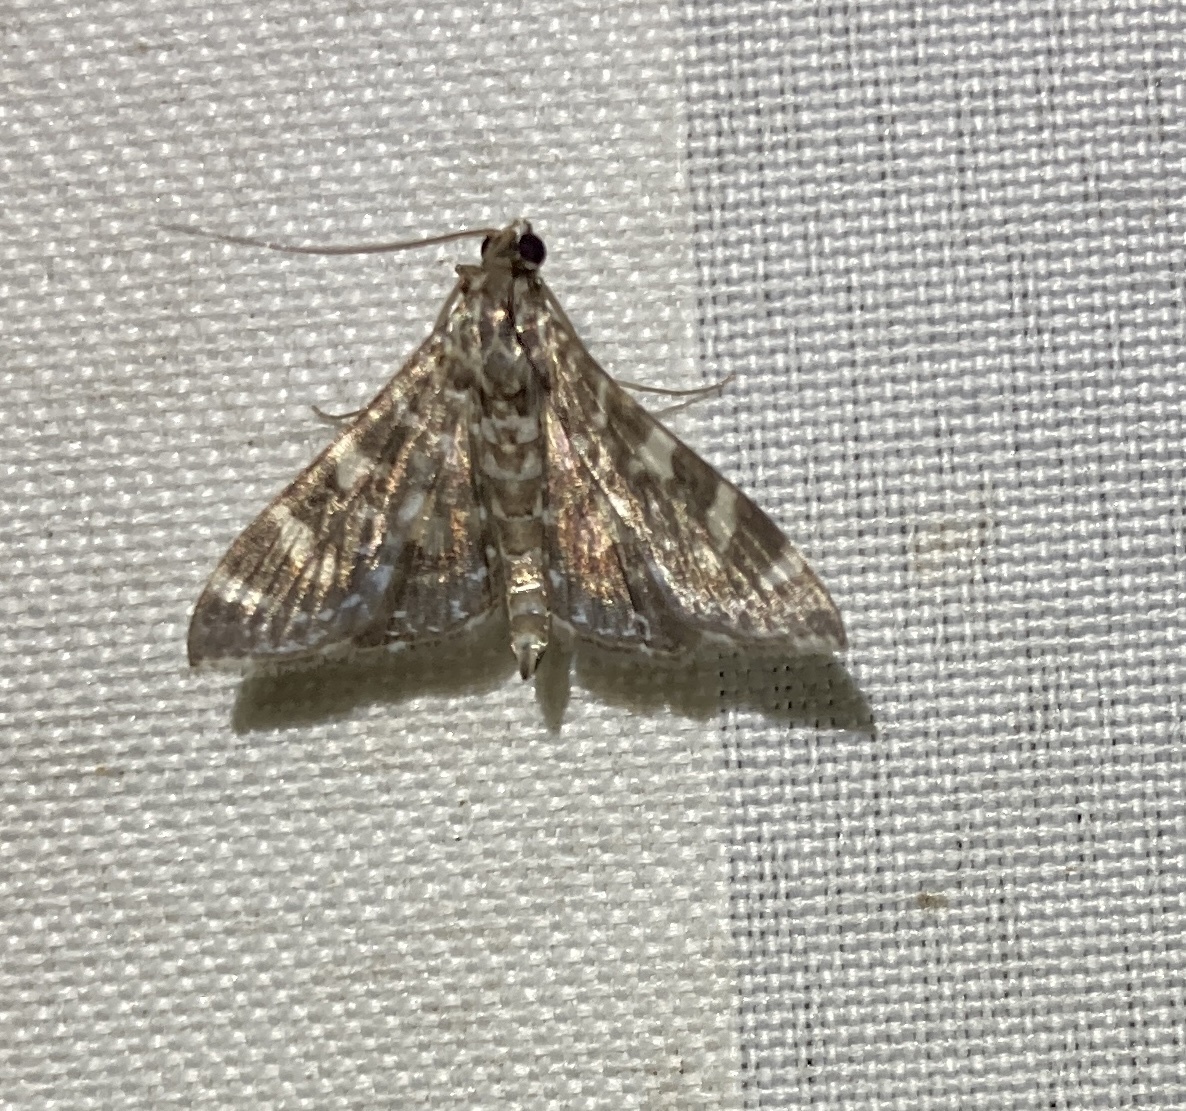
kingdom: Animalia
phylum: Arthropoda
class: Insecta
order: Lepidoptera
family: Crambidae
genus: Glyphodes
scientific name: Glyphodes onychinalis
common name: Swan plant moth
